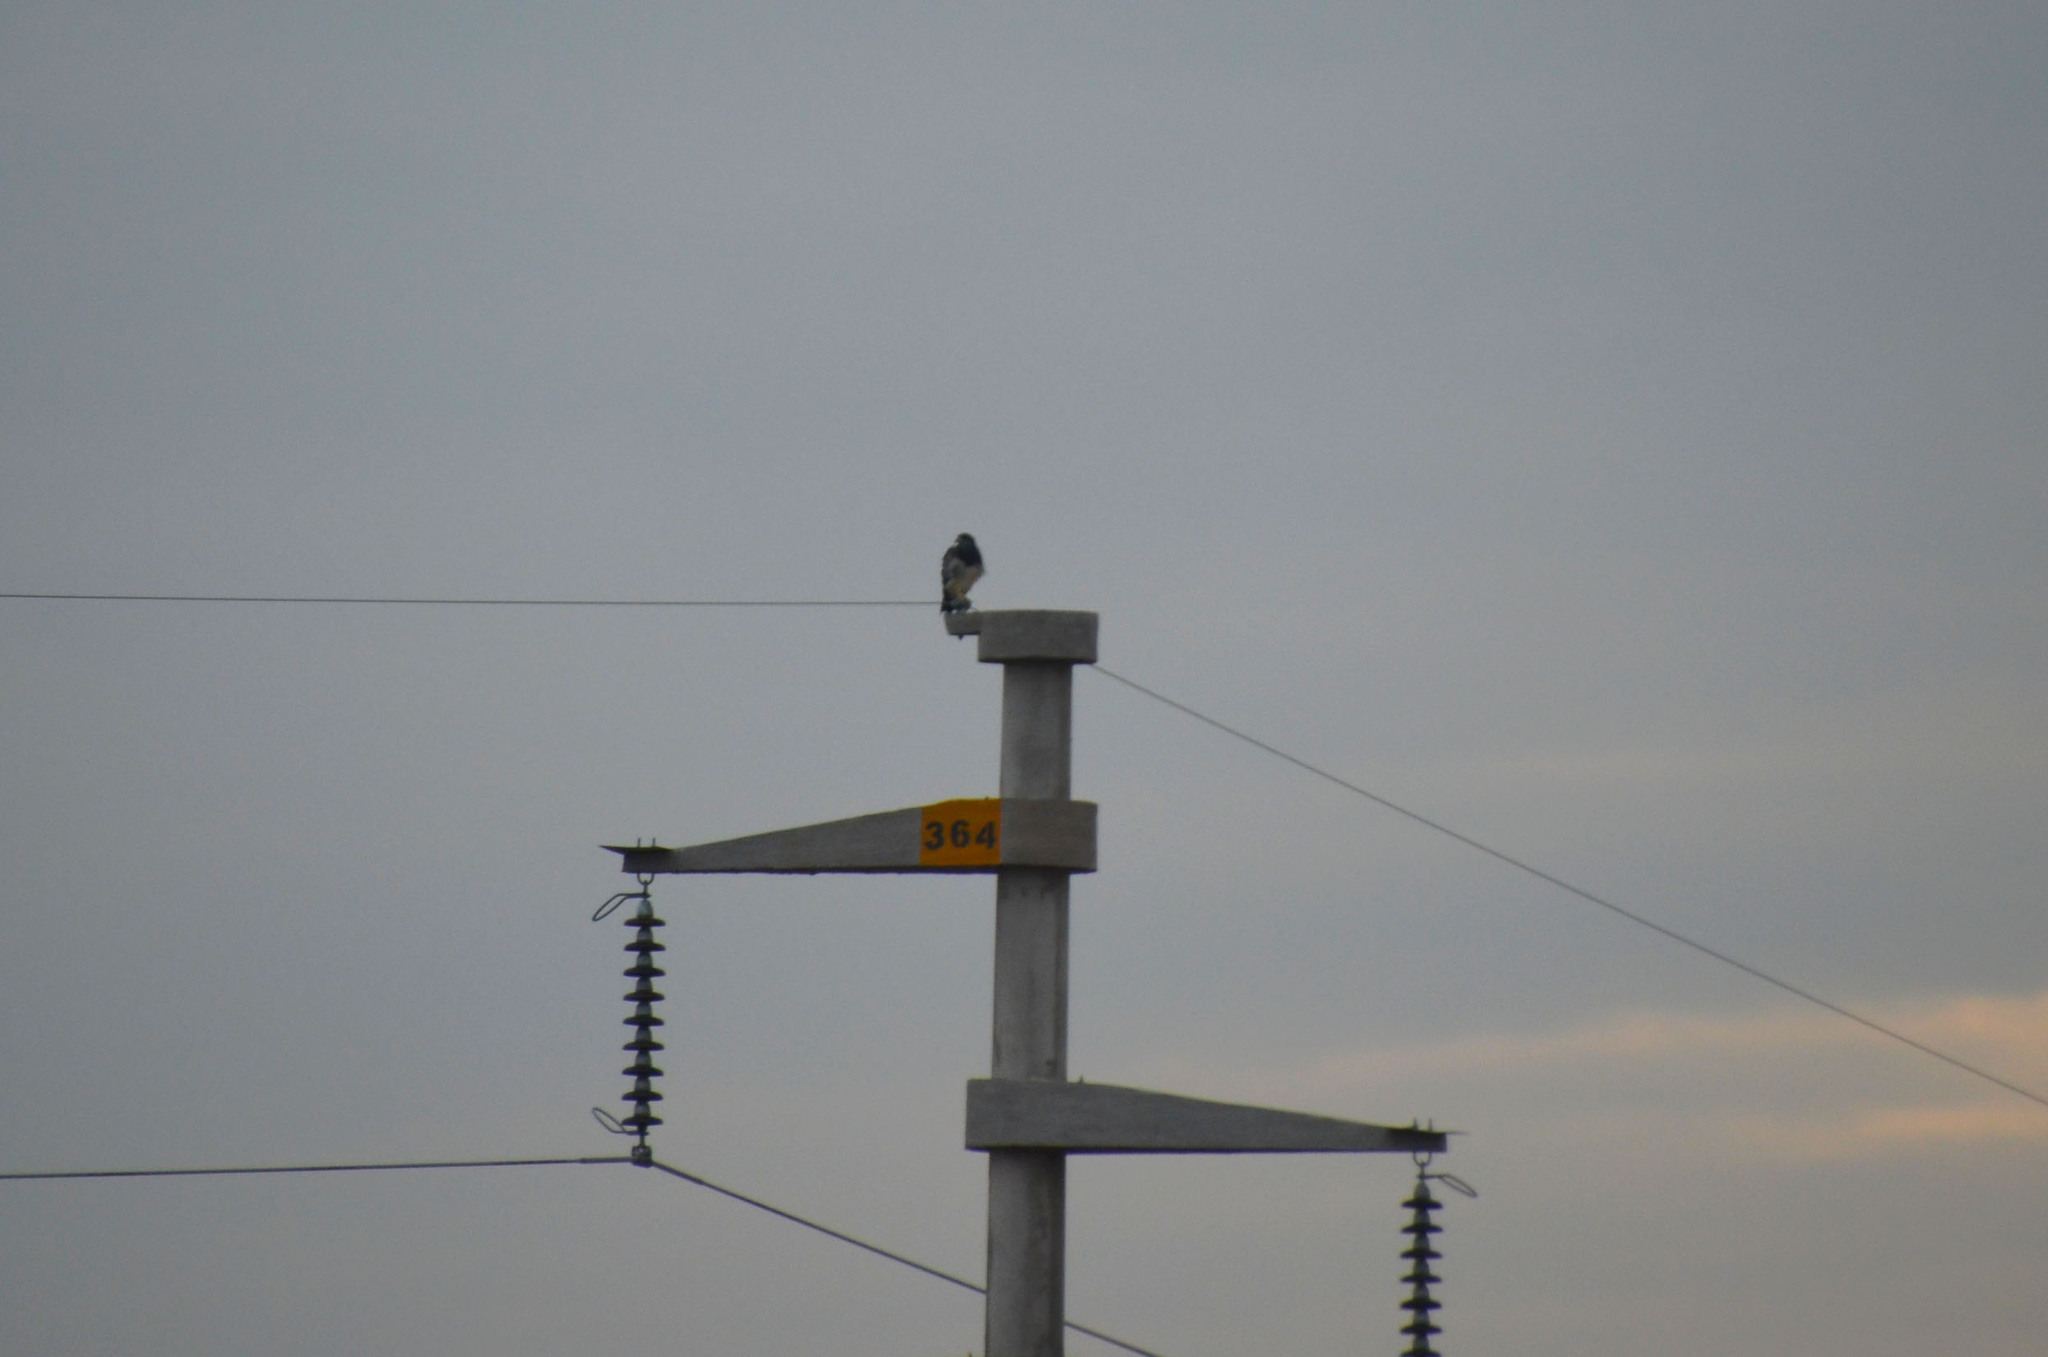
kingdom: Animalia
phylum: Chordata
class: Aves
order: Accipitriformes
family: Accipitridae
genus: Geranoaetus
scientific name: Geranoaetus melanoleucus
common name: Black-chested buzzard-eagle
